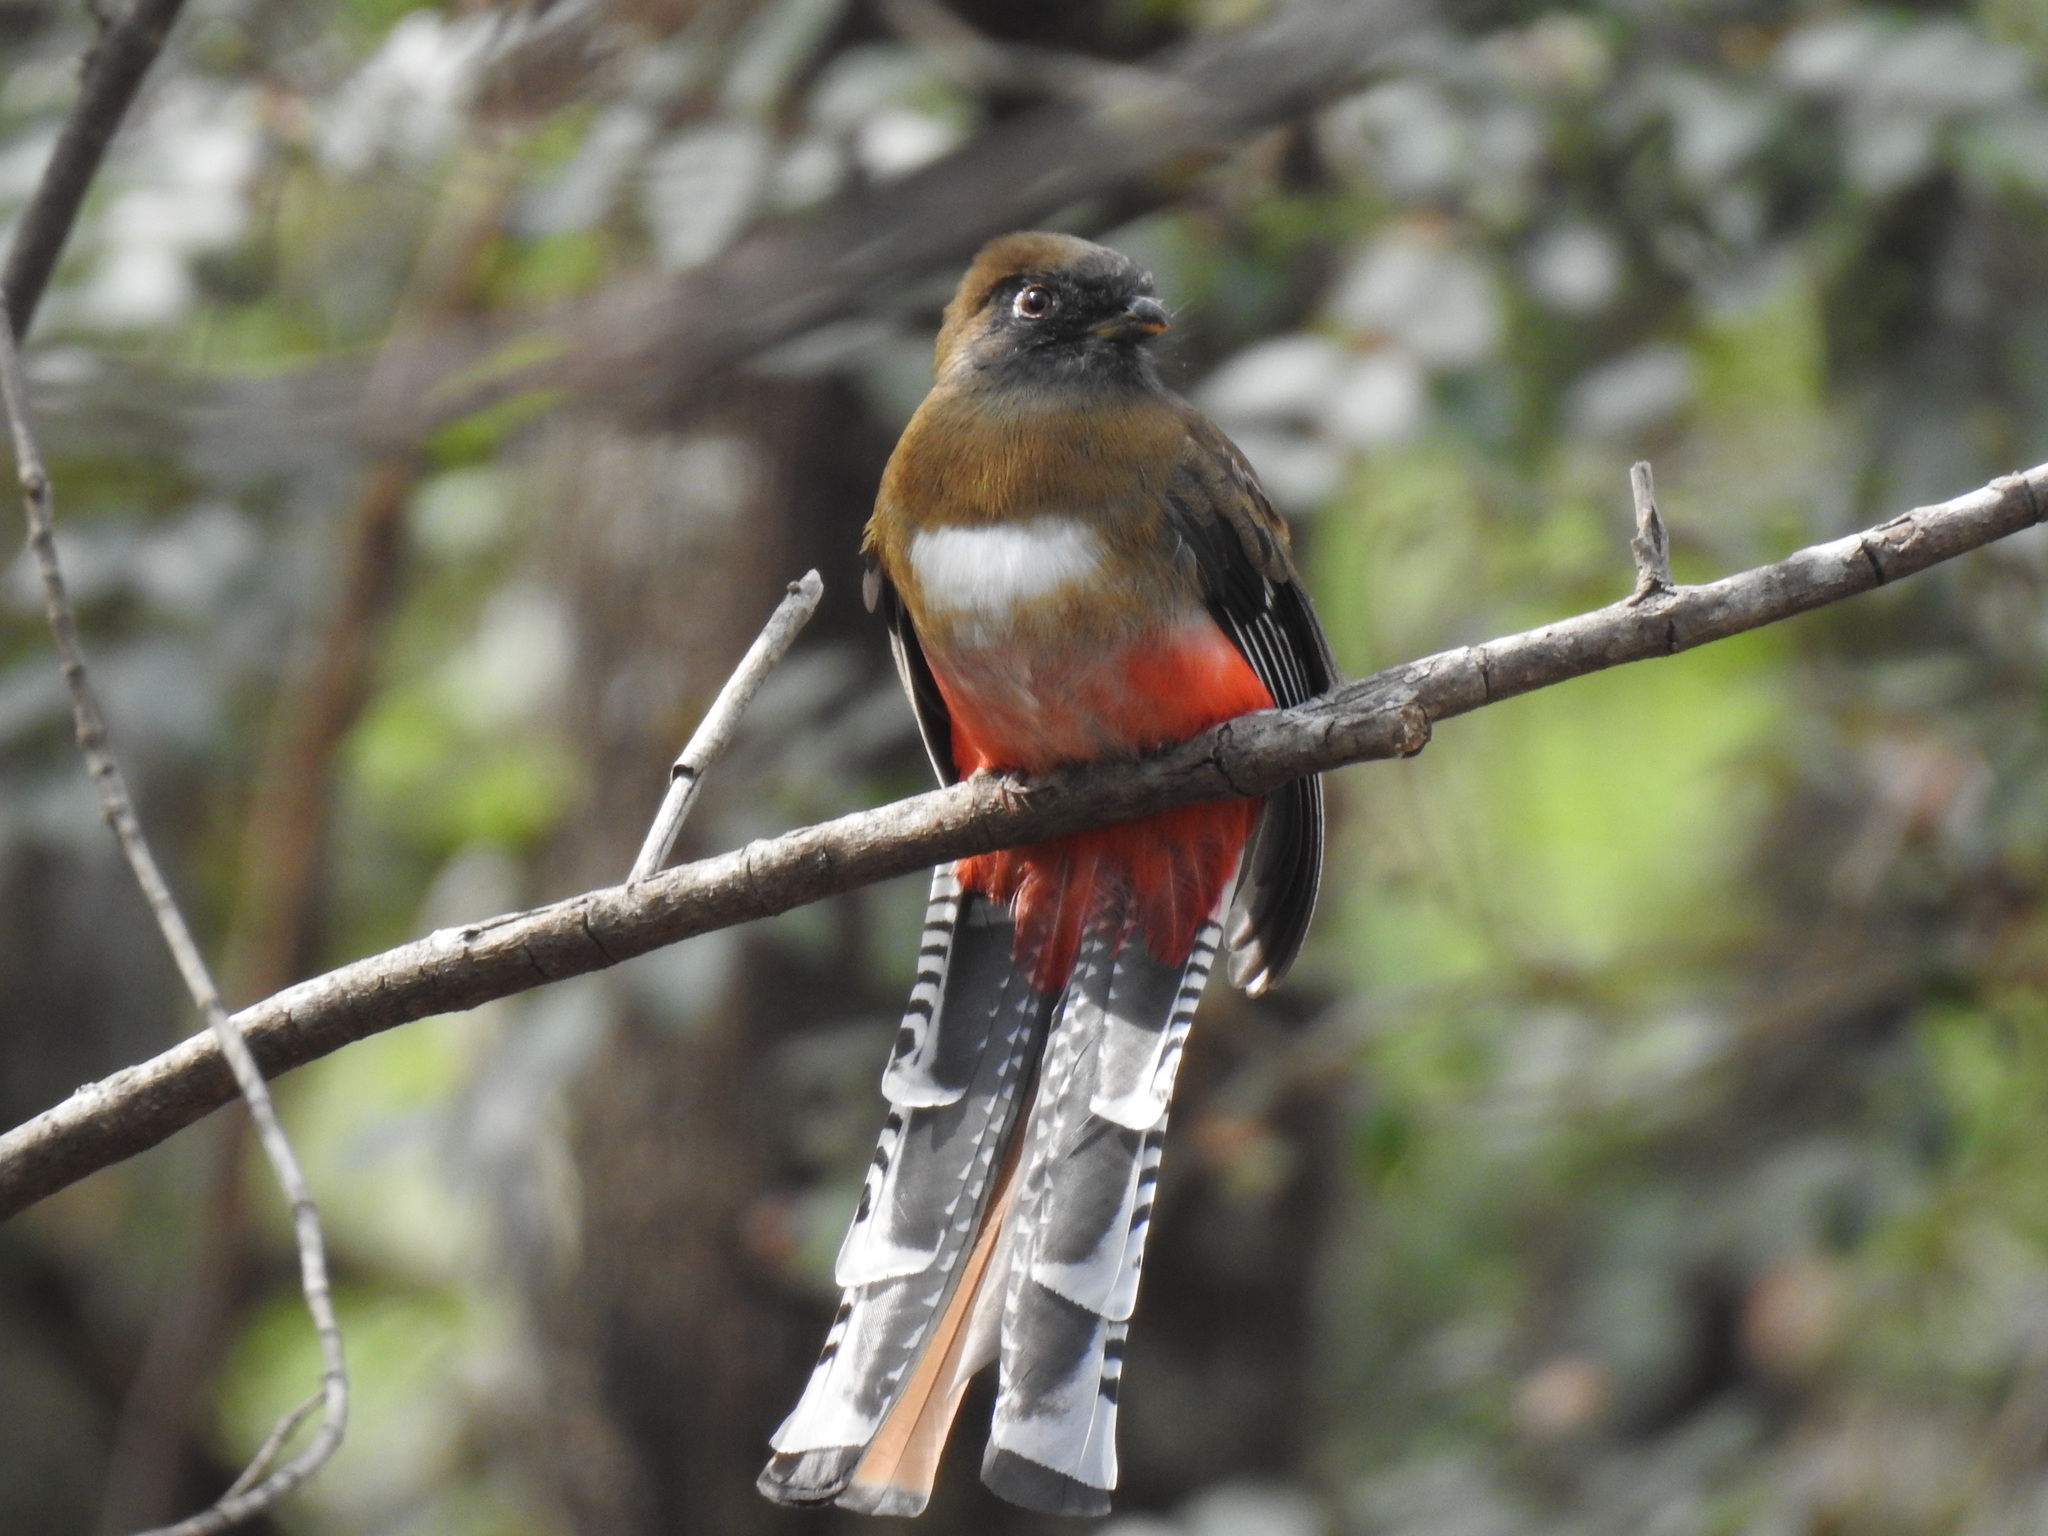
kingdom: Animalia
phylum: Chordata
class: Aves
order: Trogoniformes
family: Trogonidae
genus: Trogon
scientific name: Trogon mexicanus
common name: Mountain trogon
